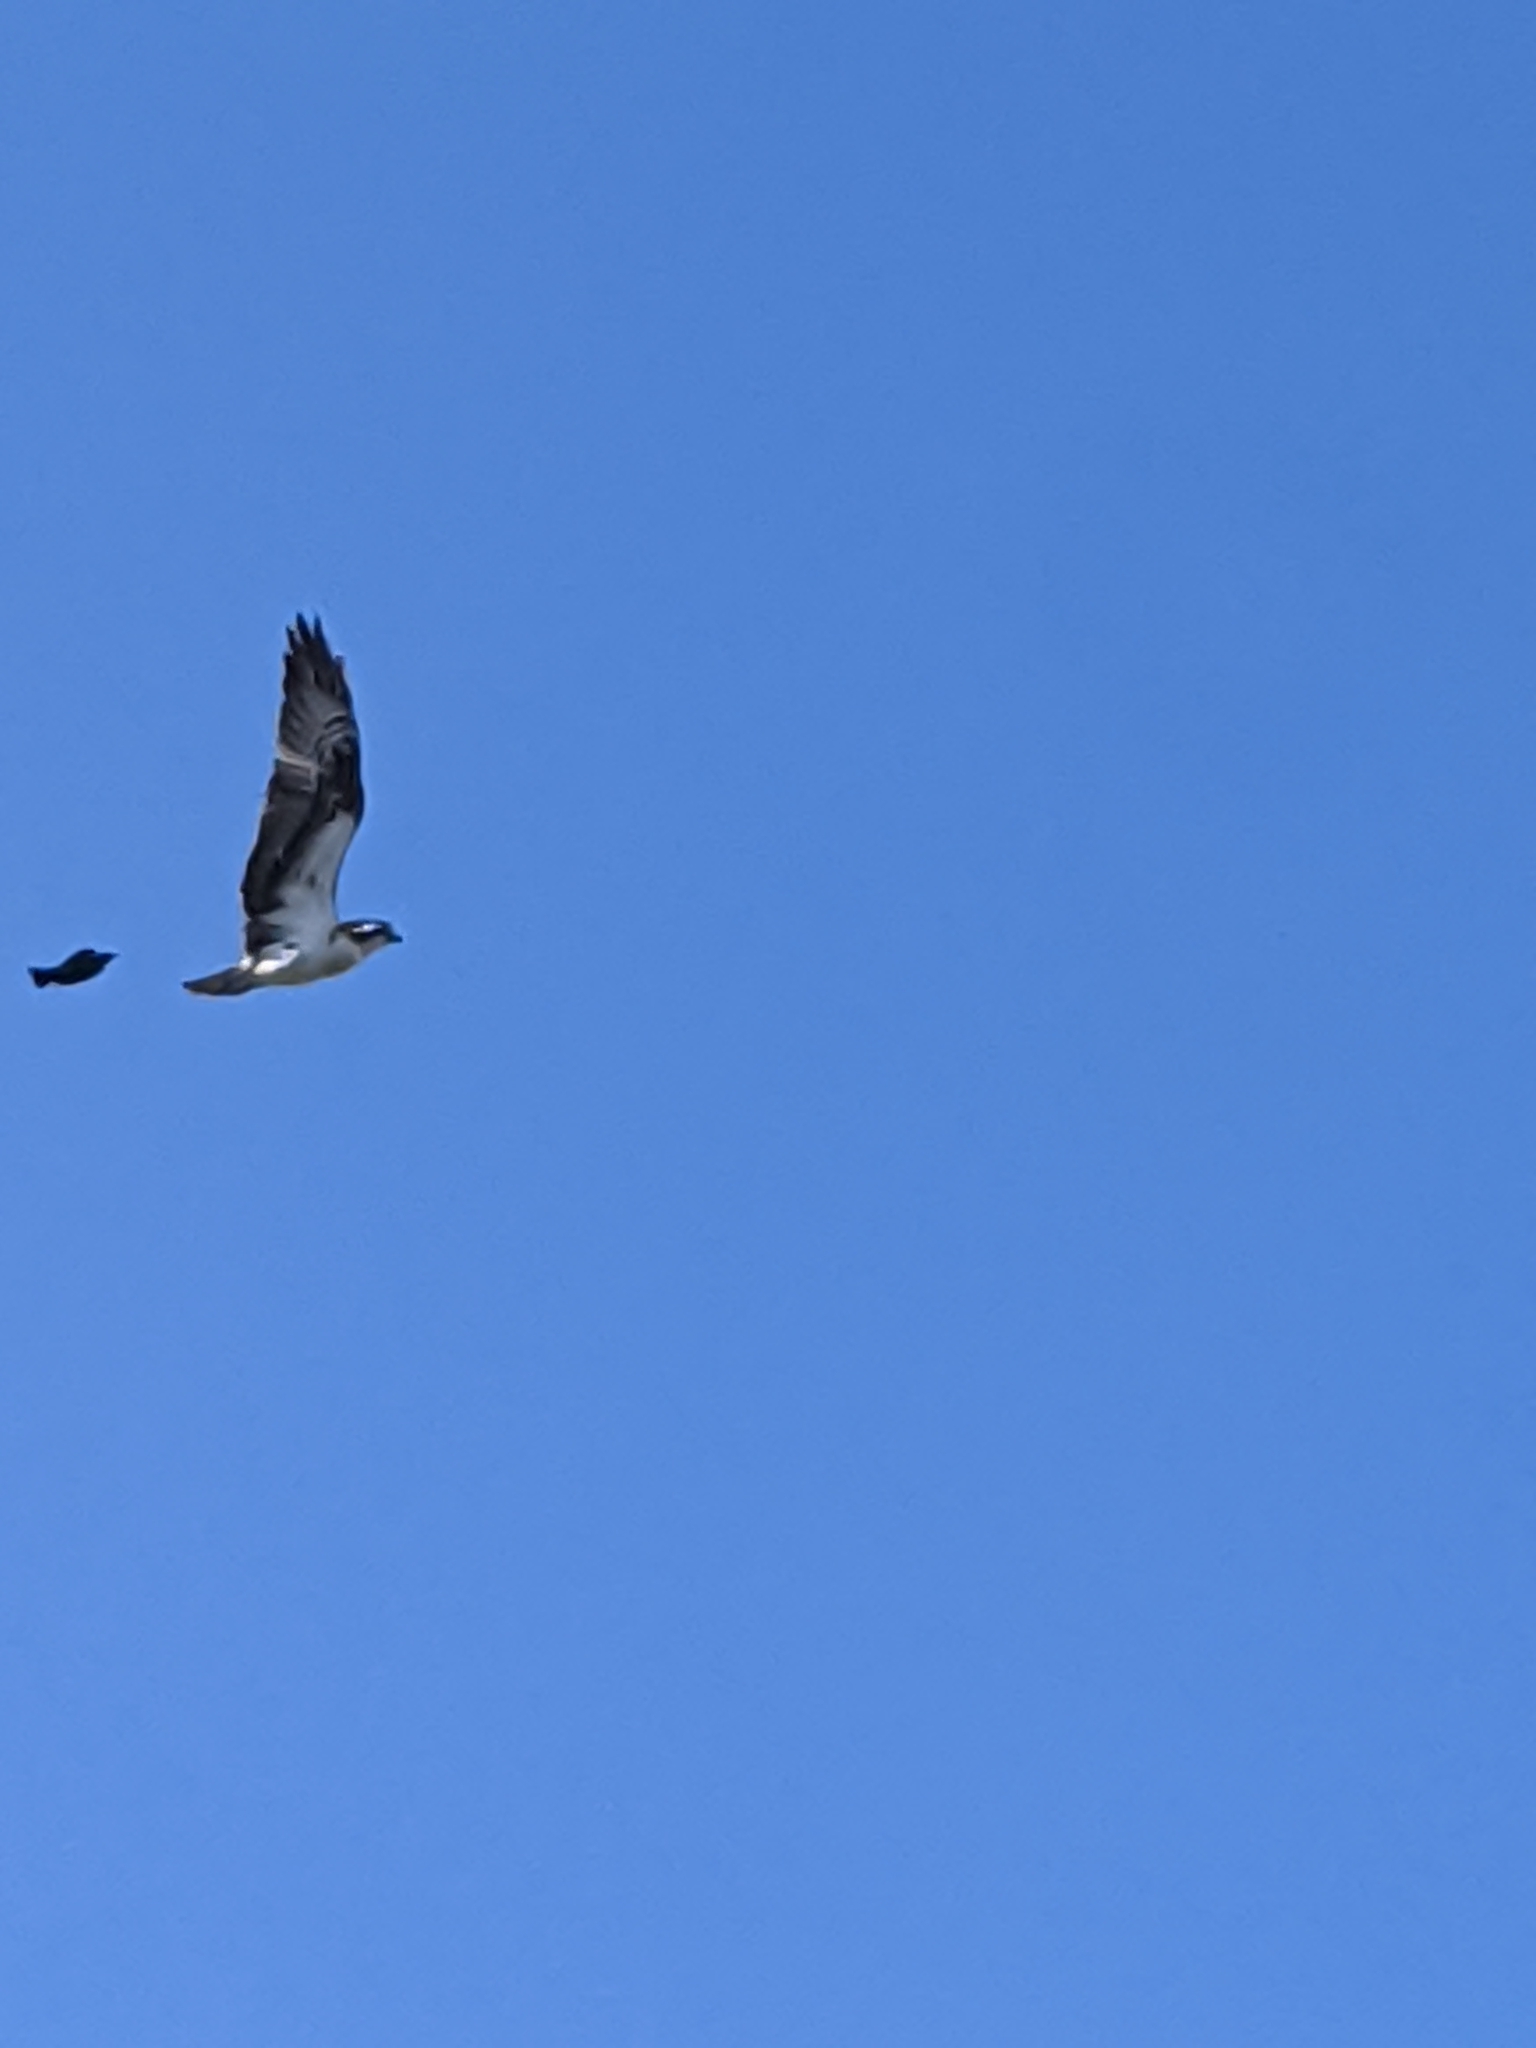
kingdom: Animalia
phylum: Chordata
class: Aves
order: Accipitriformes
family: Pandionidae
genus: Pandion
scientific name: Pandion haliaetus
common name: Osprey
